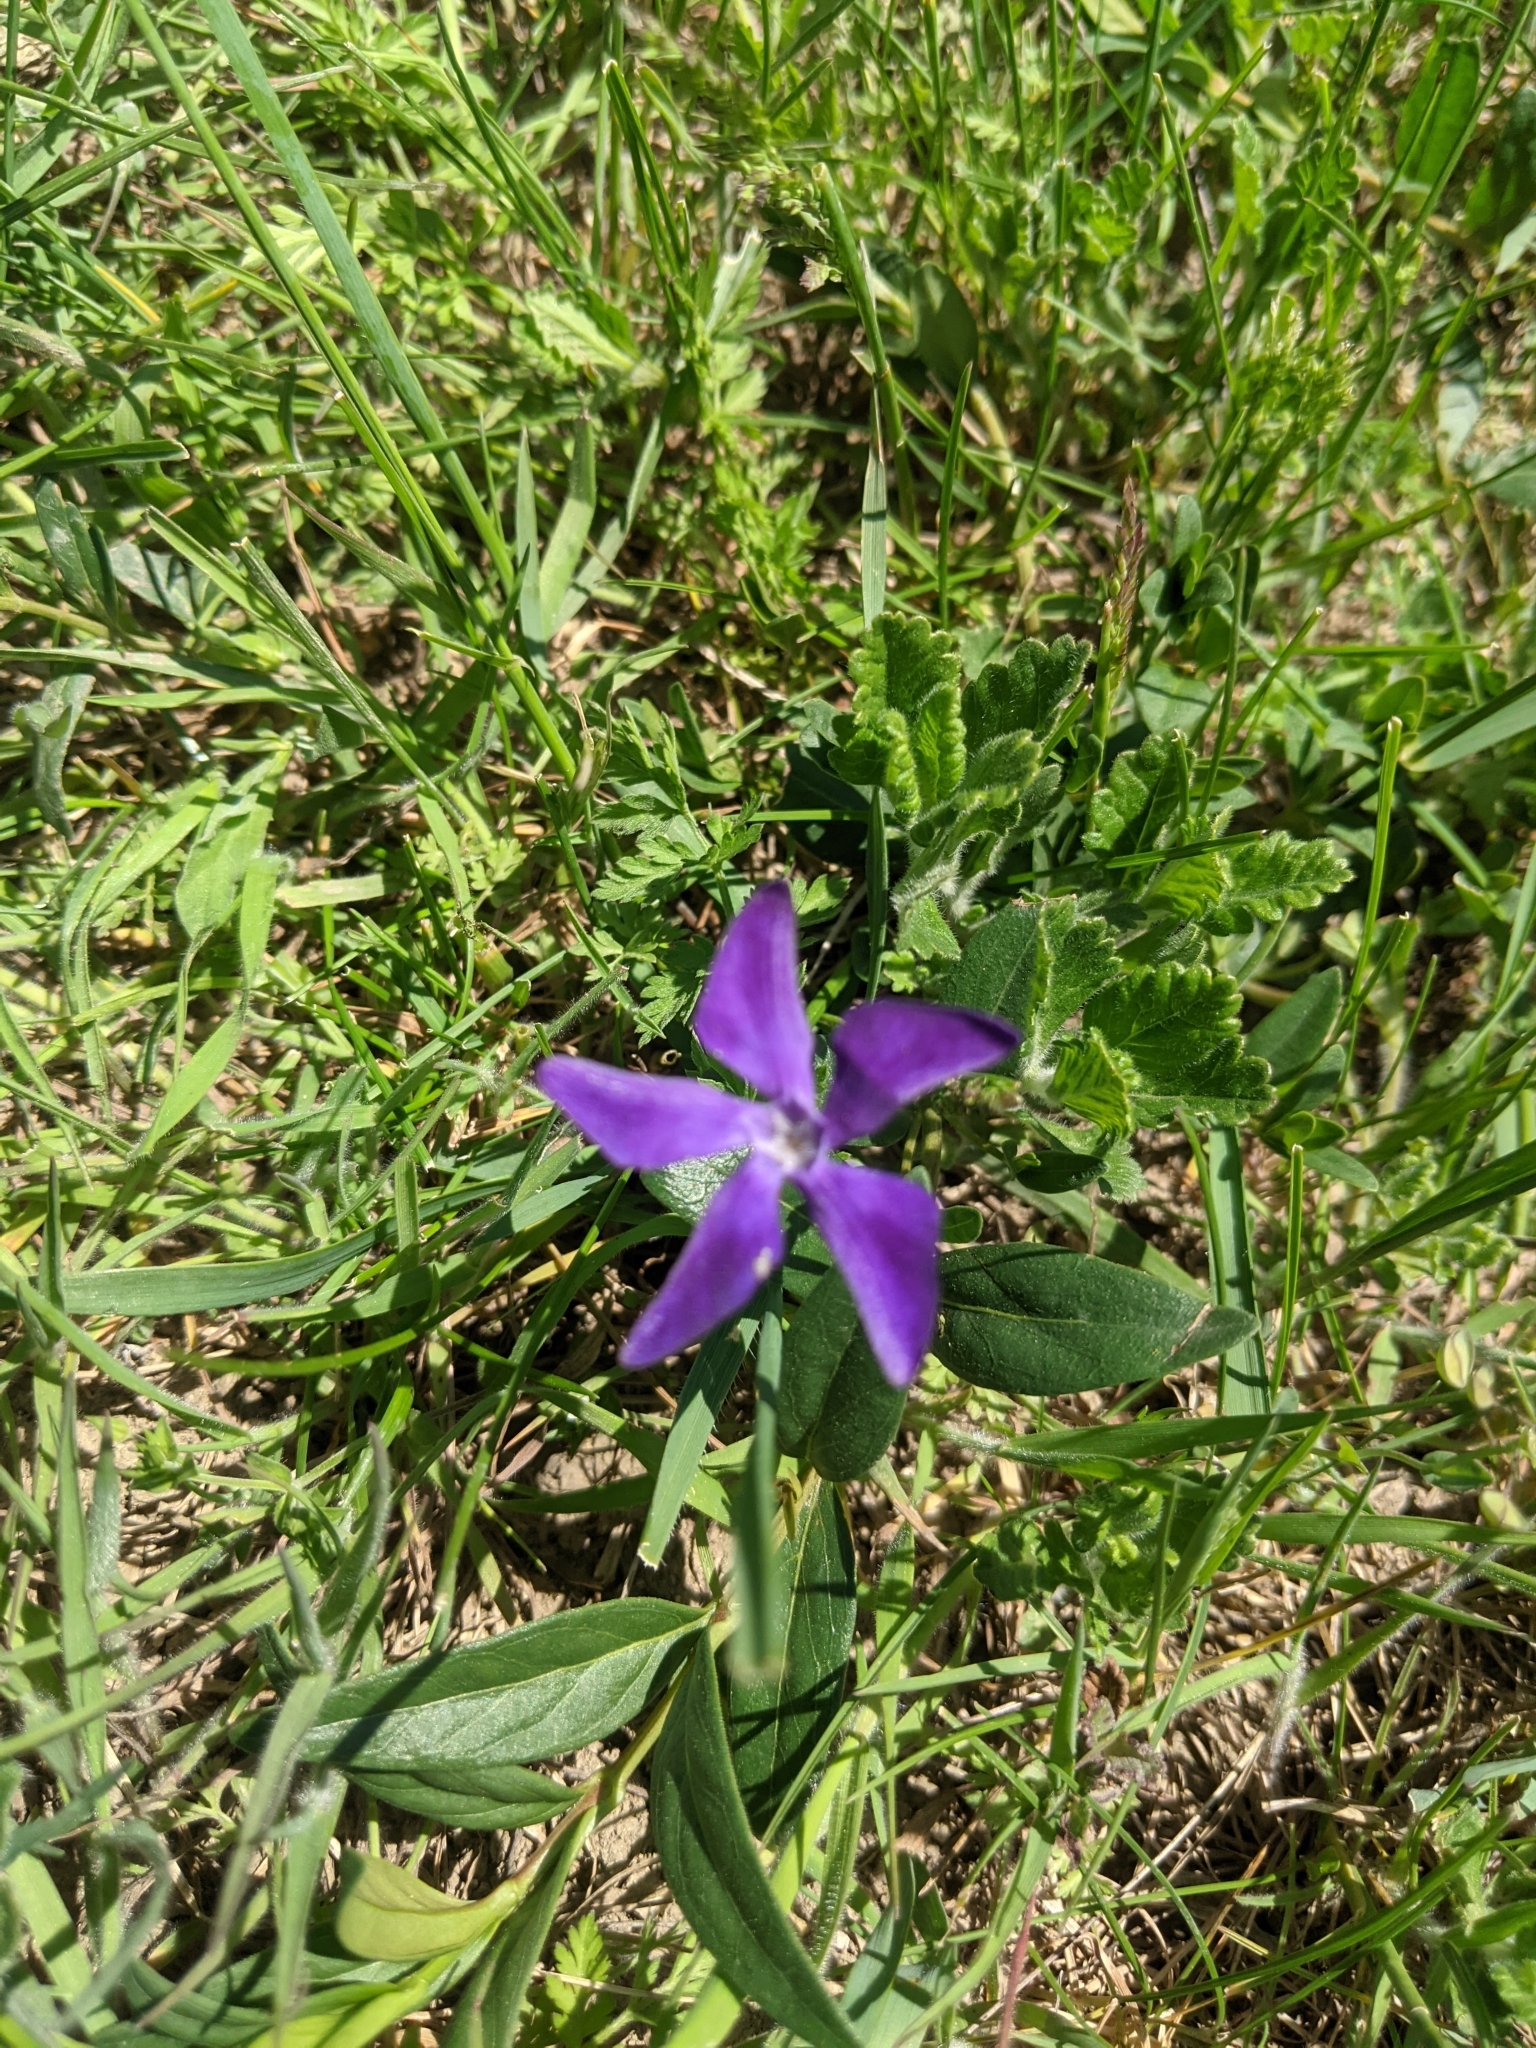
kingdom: Plantae
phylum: Tracheophyta
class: Magnoliopsida
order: Gentianales
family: Apocynaceae
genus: Vinca
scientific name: Vinca minor
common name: Lesser periwinkle
